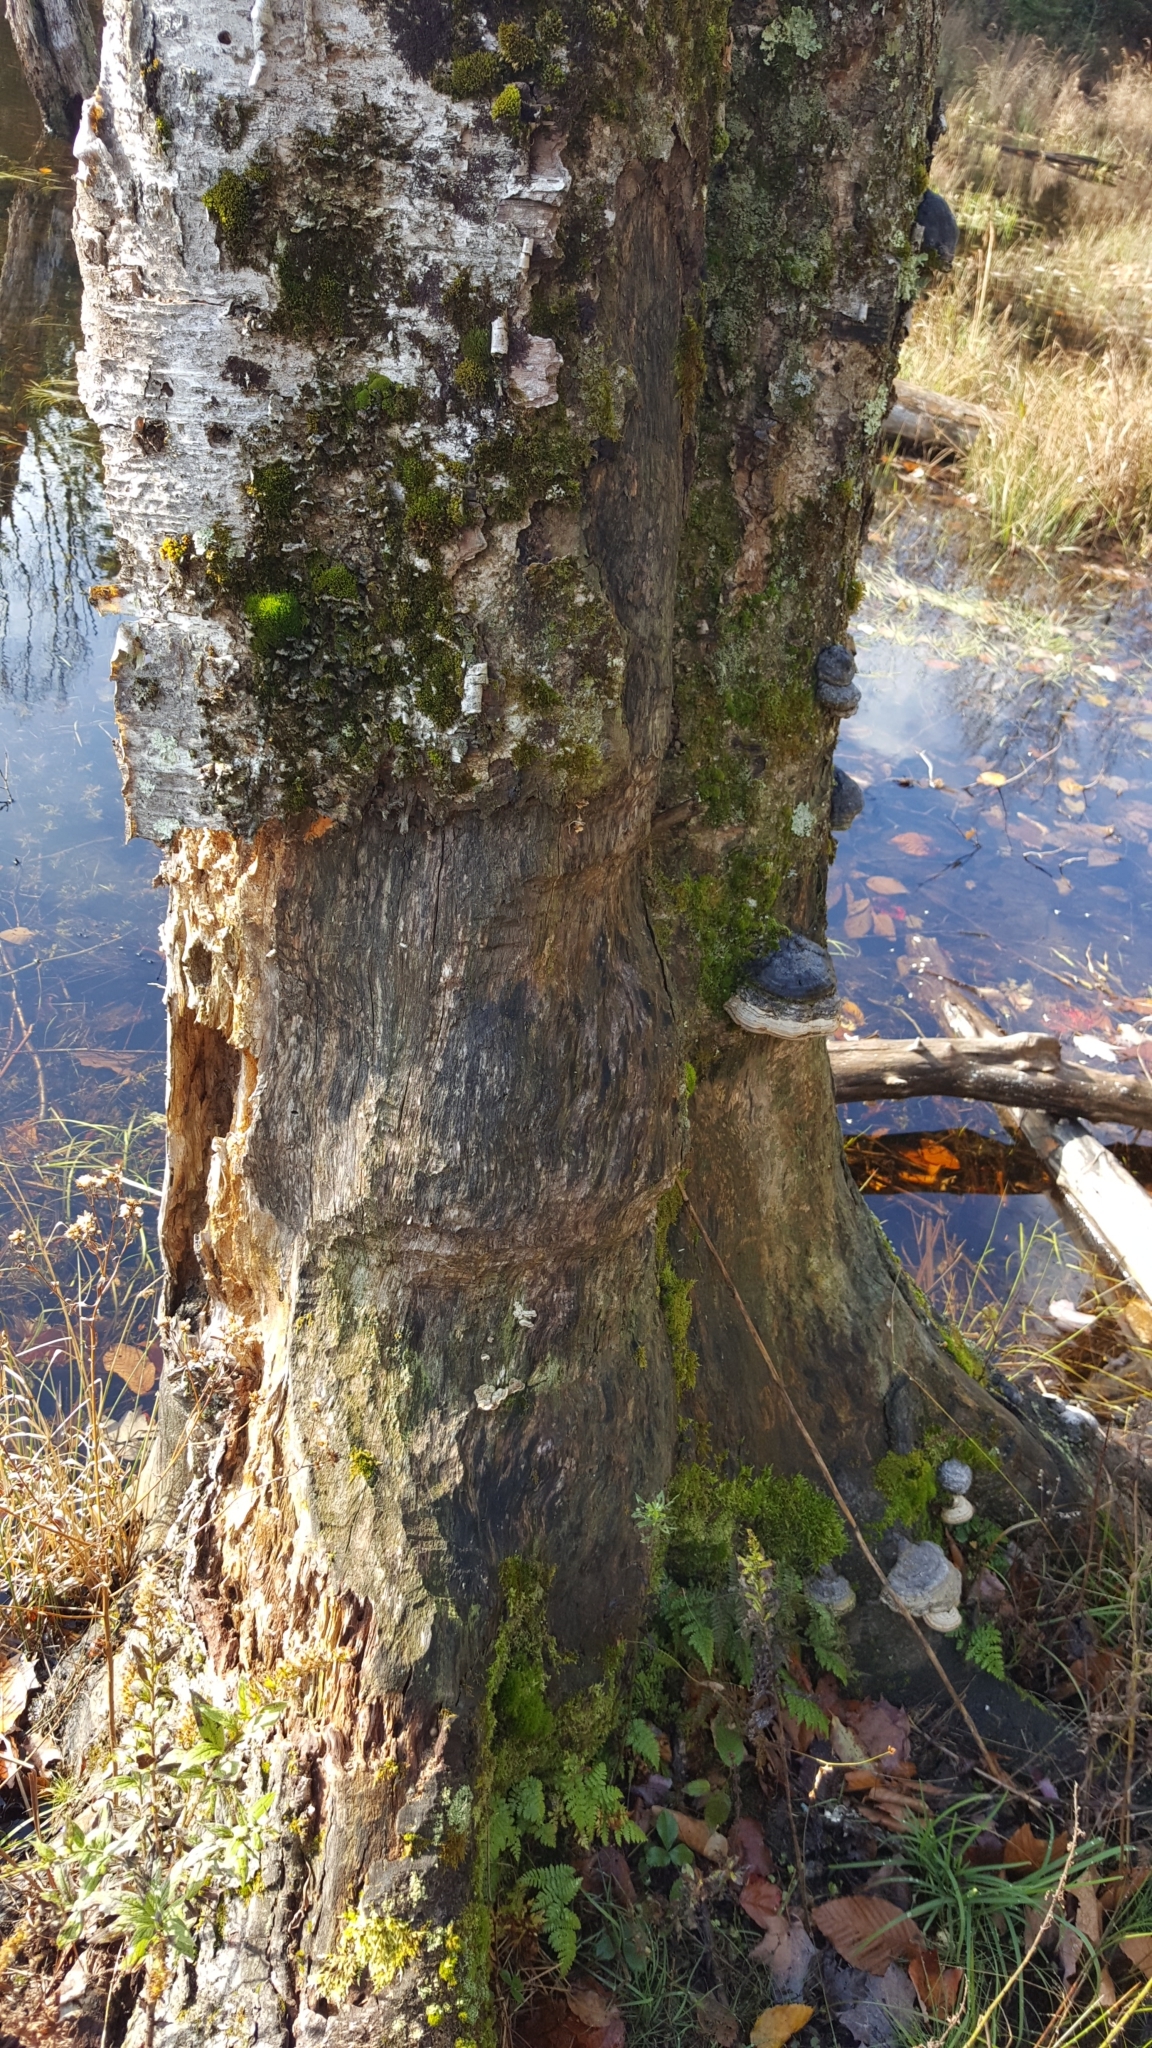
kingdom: Animalia
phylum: Chordata
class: Mammalia
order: Rodentia
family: Castoridae
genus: Castor
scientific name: Castor canadensis
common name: American beaver
